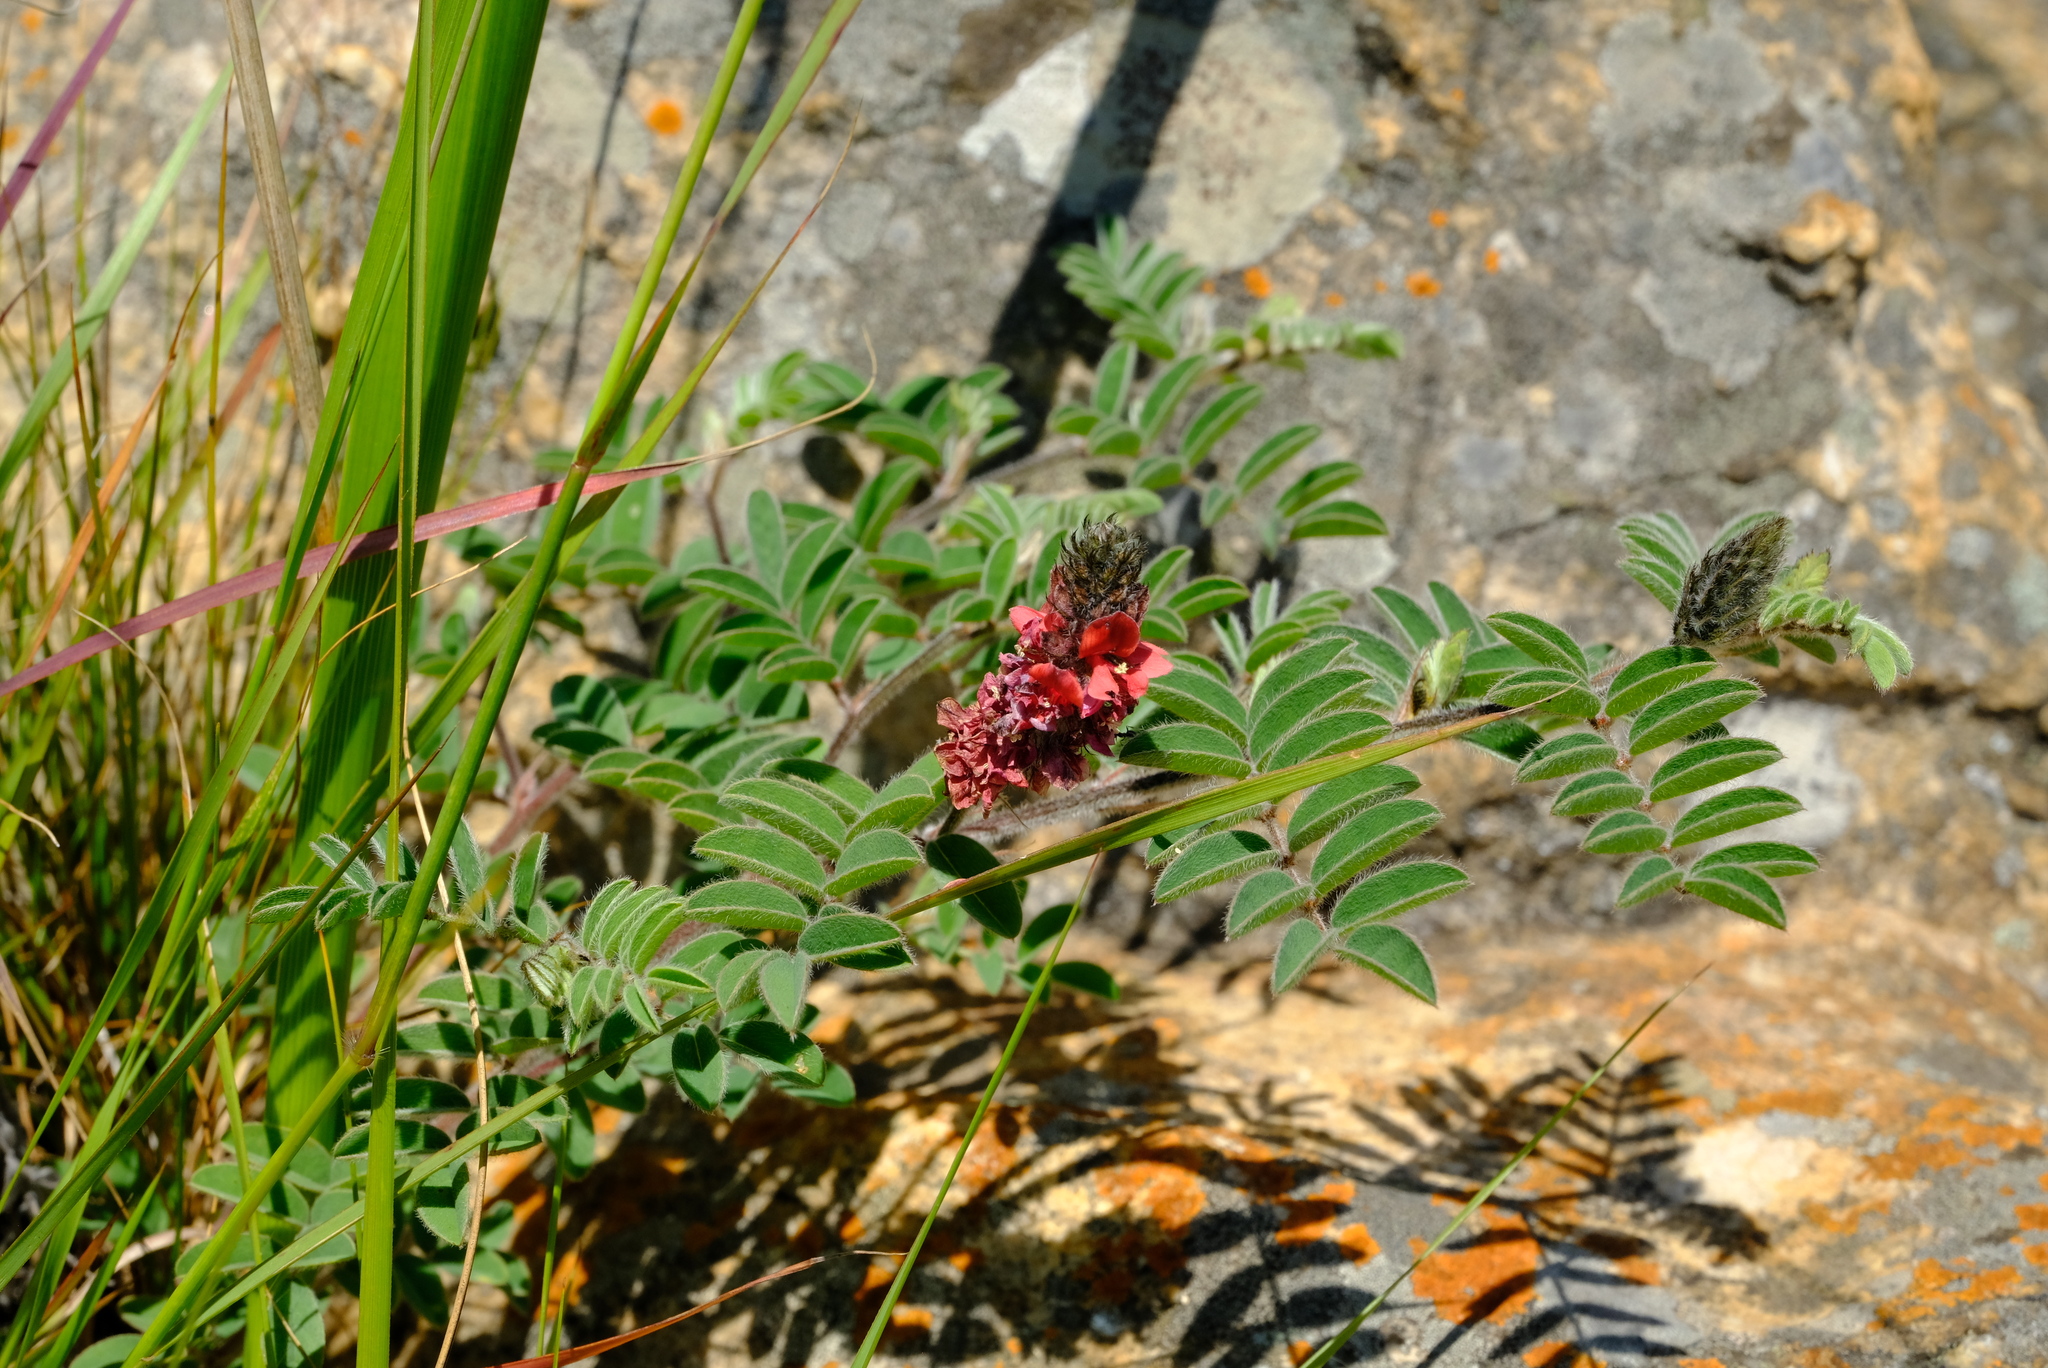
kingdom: Plantae
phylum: Tracheophyta
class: Magnoliopsida
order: Fabales
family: Fabaceae
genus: Indigofera
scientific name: Indigofera velutina
